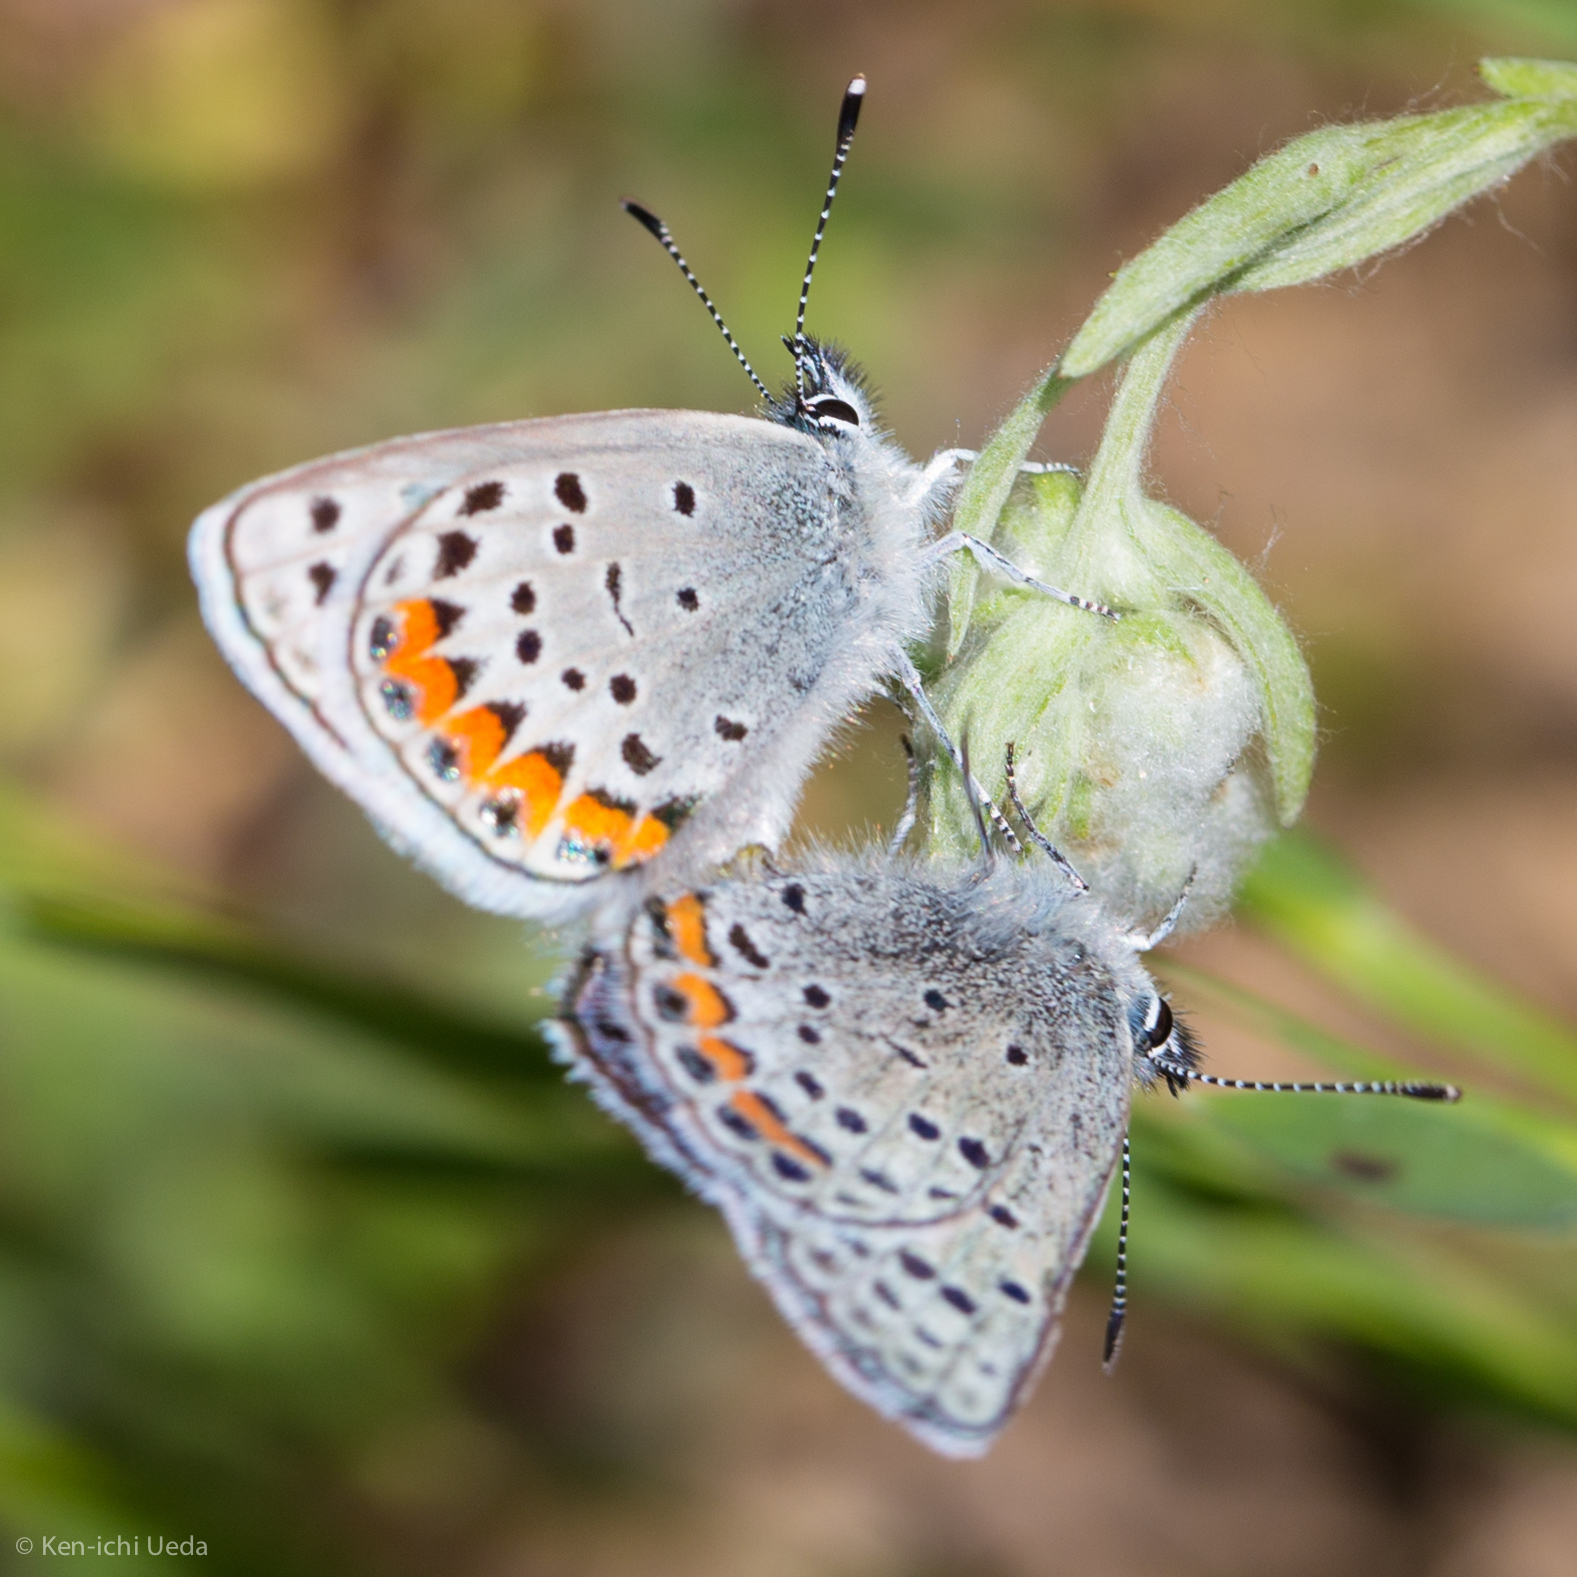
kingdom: Animalia
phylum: Arthropoda
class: Insecta
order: Lepidoptera
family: Lycaenidae
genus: Icaricia
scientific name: Icaricia acmon
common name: Acmon blue
